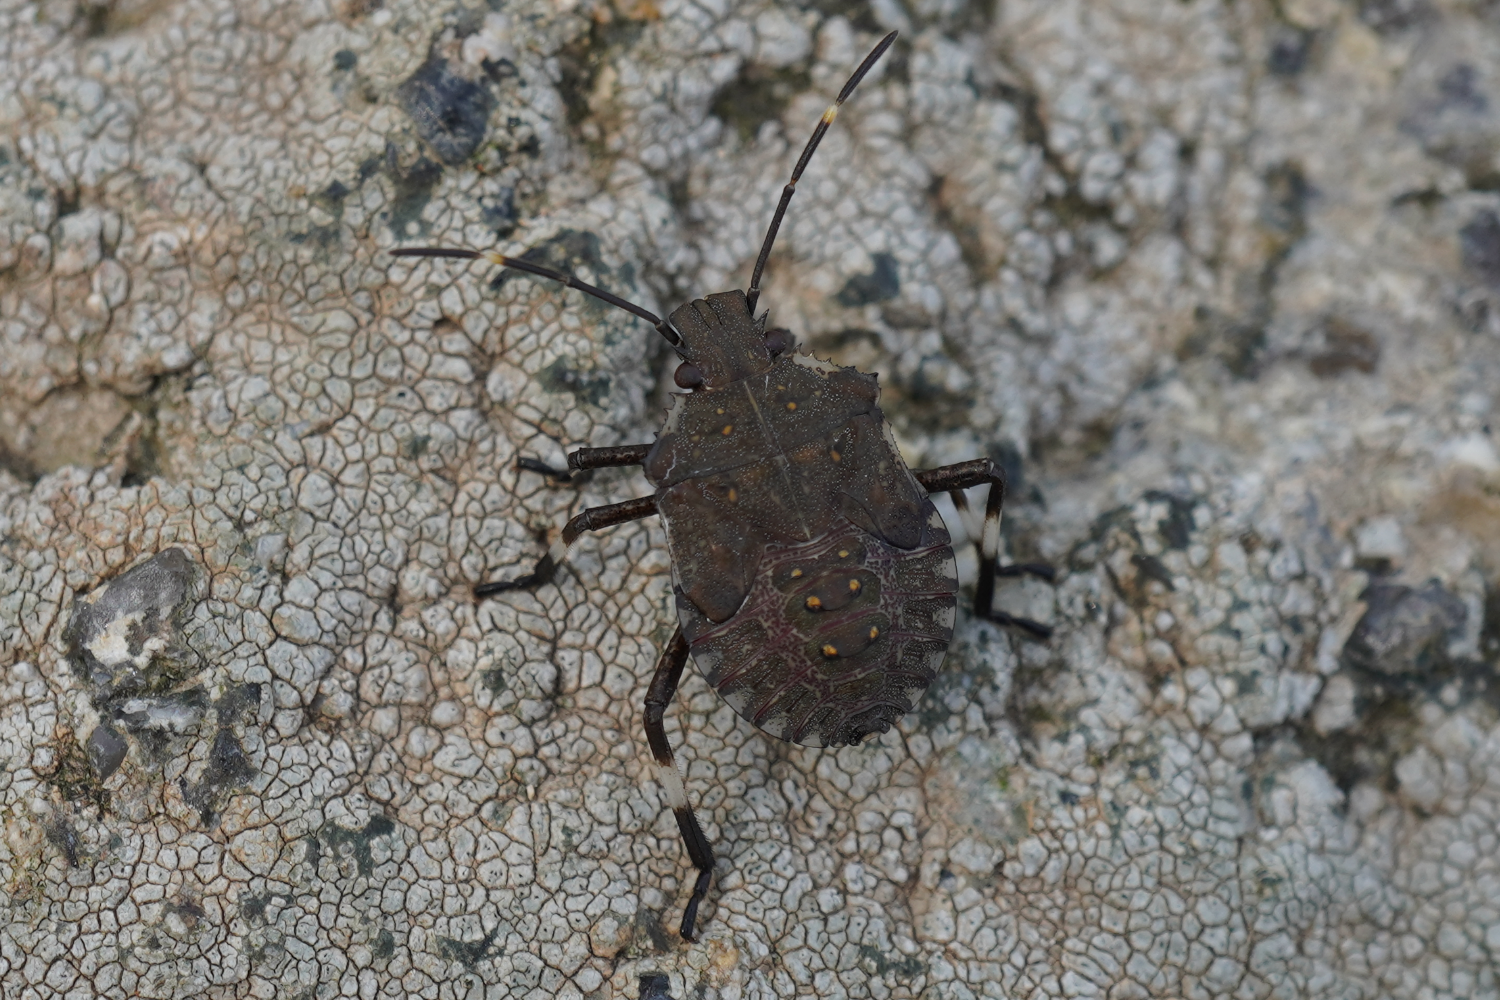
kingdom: Animalia
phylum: Arthropoda
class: Insecta
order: Hemiptera
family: Pentatomidae
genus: Halyomorpha
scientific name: Halyomorpha halys
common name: Brown marmorated stink bug
